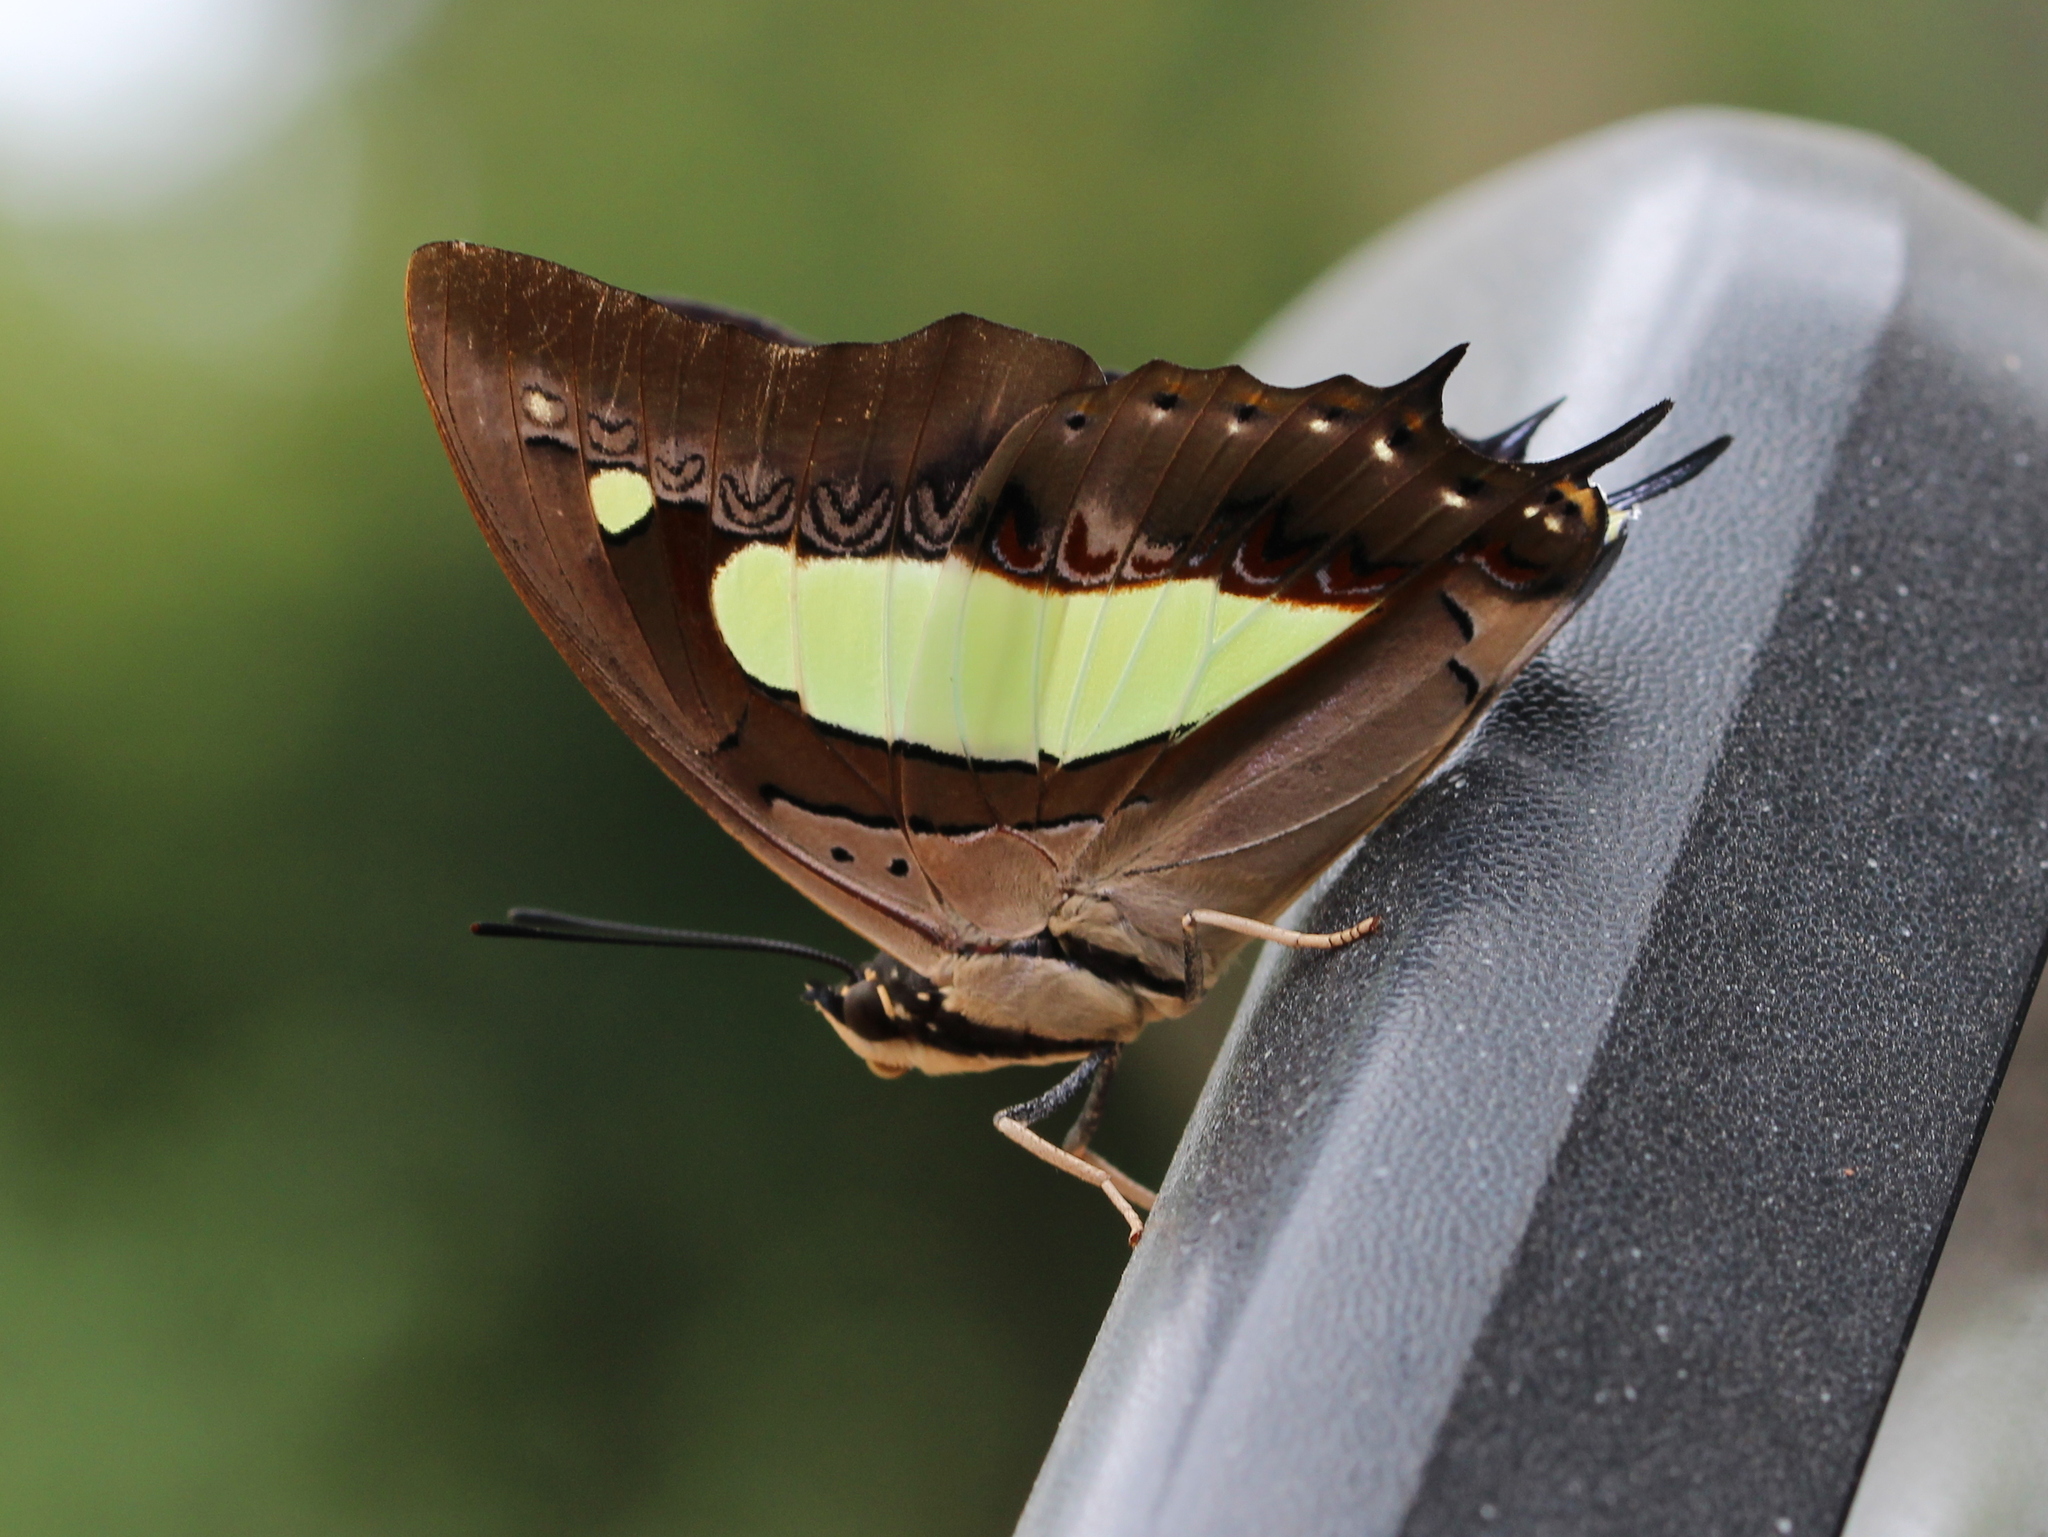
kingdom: Animalia
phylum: Arthropoda
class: Insecta
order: Lepidoptera
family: Nymphalidae
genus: Polyura
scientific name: Polyura
